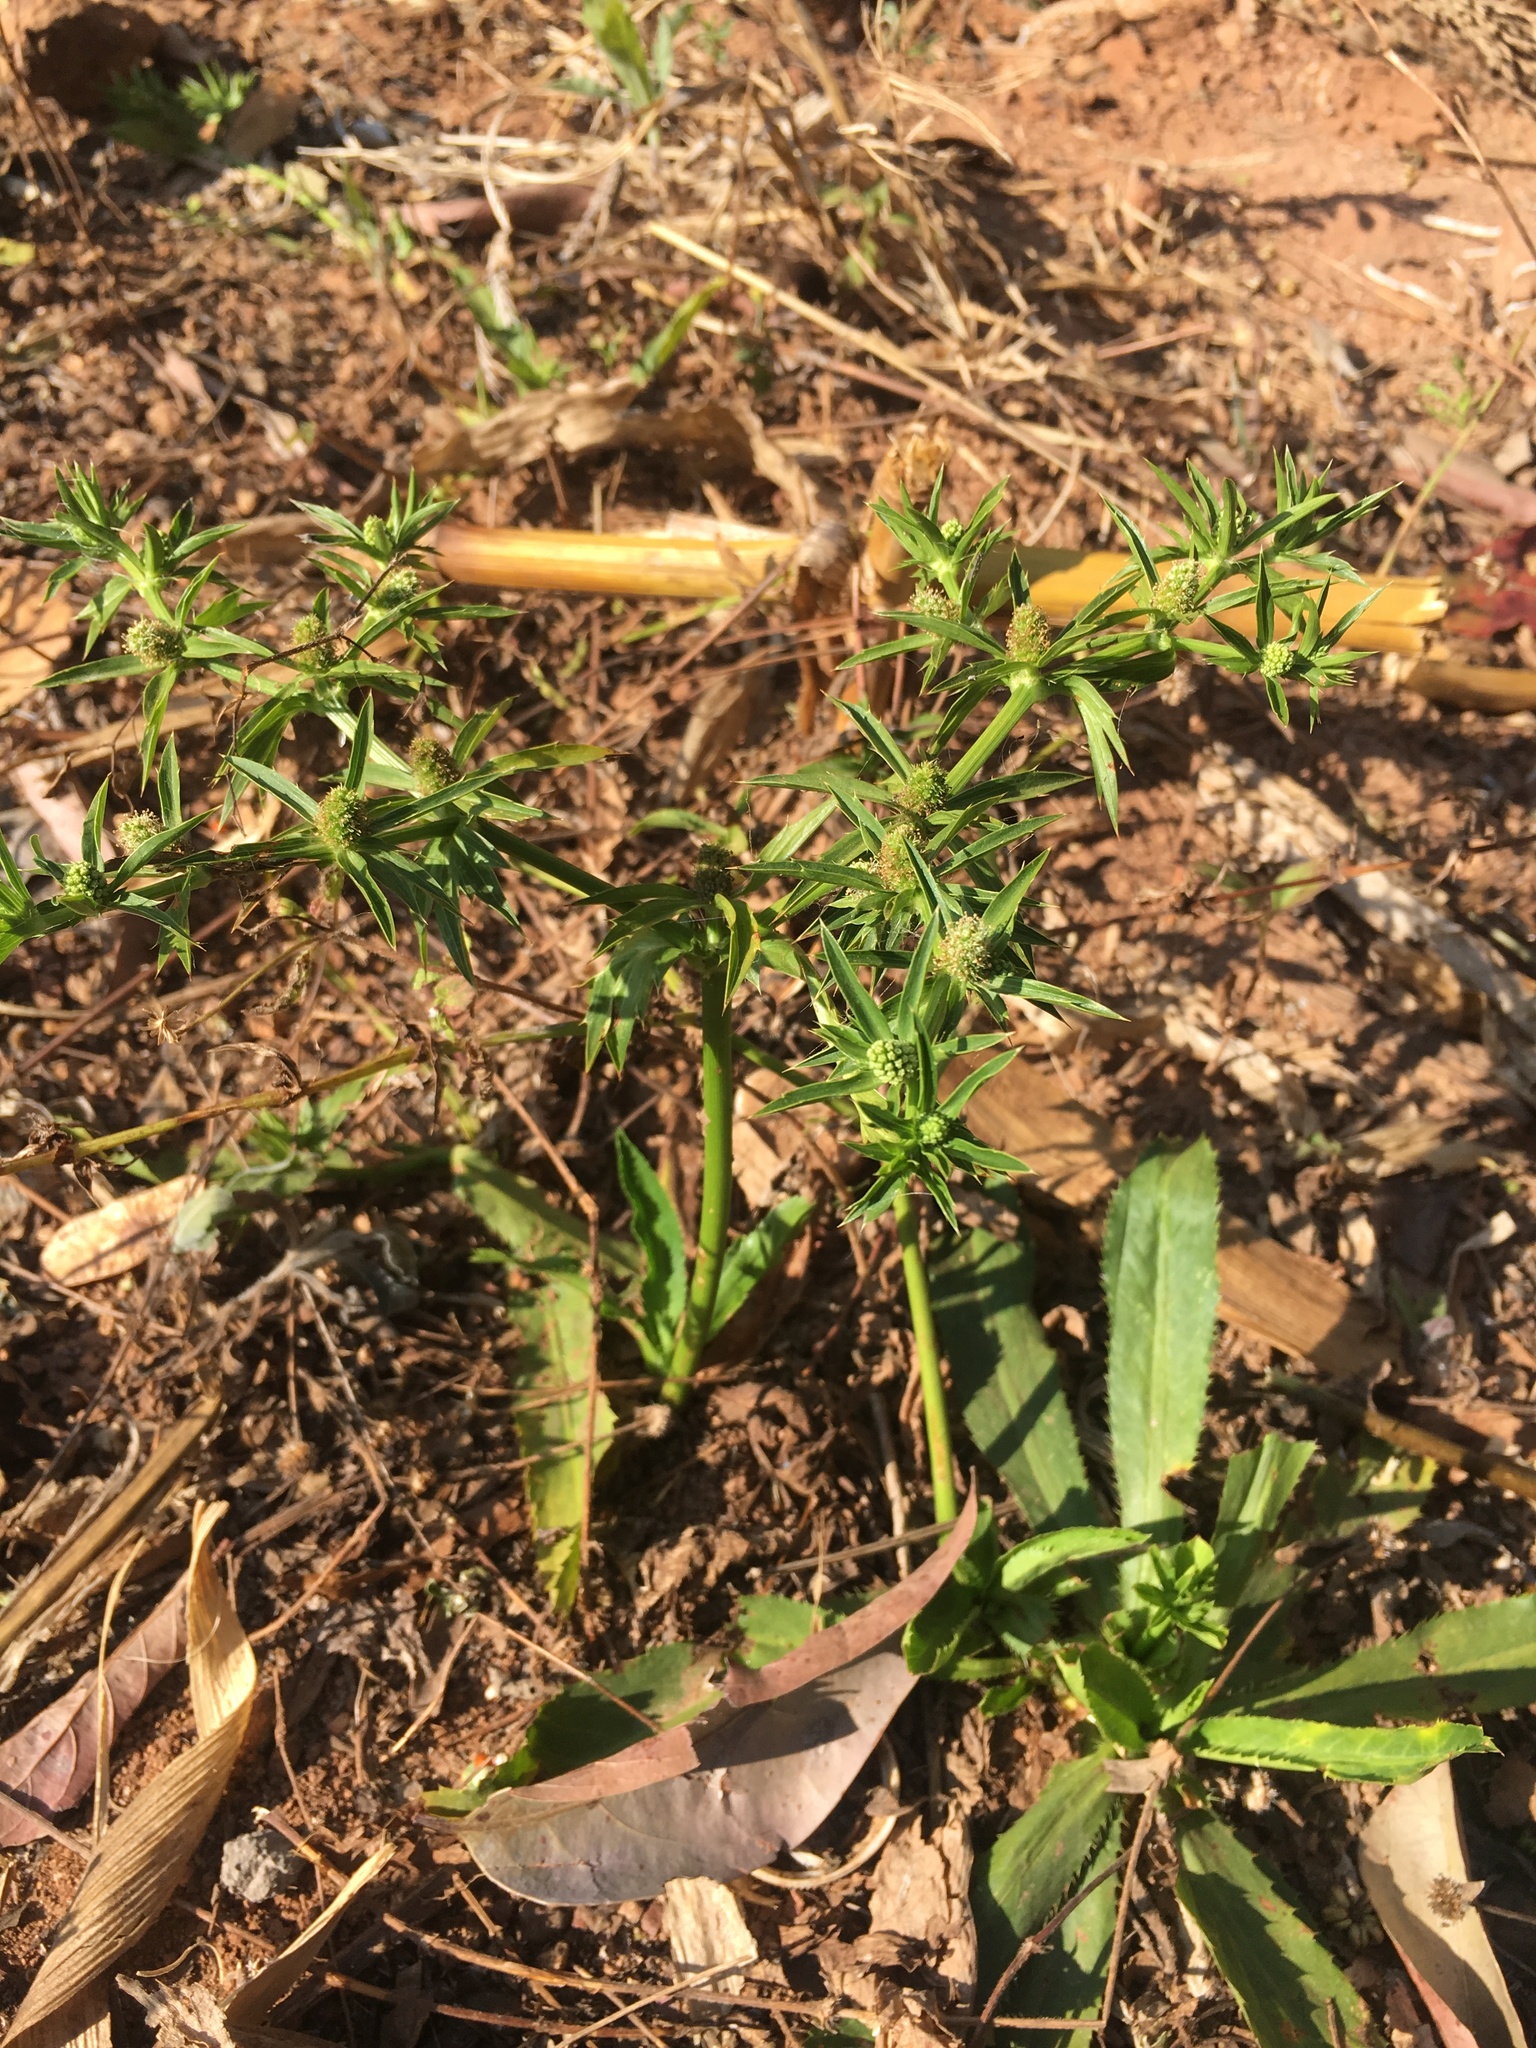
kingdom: Plantae
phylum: Tracheophyta
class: Magnoliopsida
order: Apiales
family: Apiaceae
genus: Eryngium
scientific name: Eryngium foetidum
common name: Fitweed
